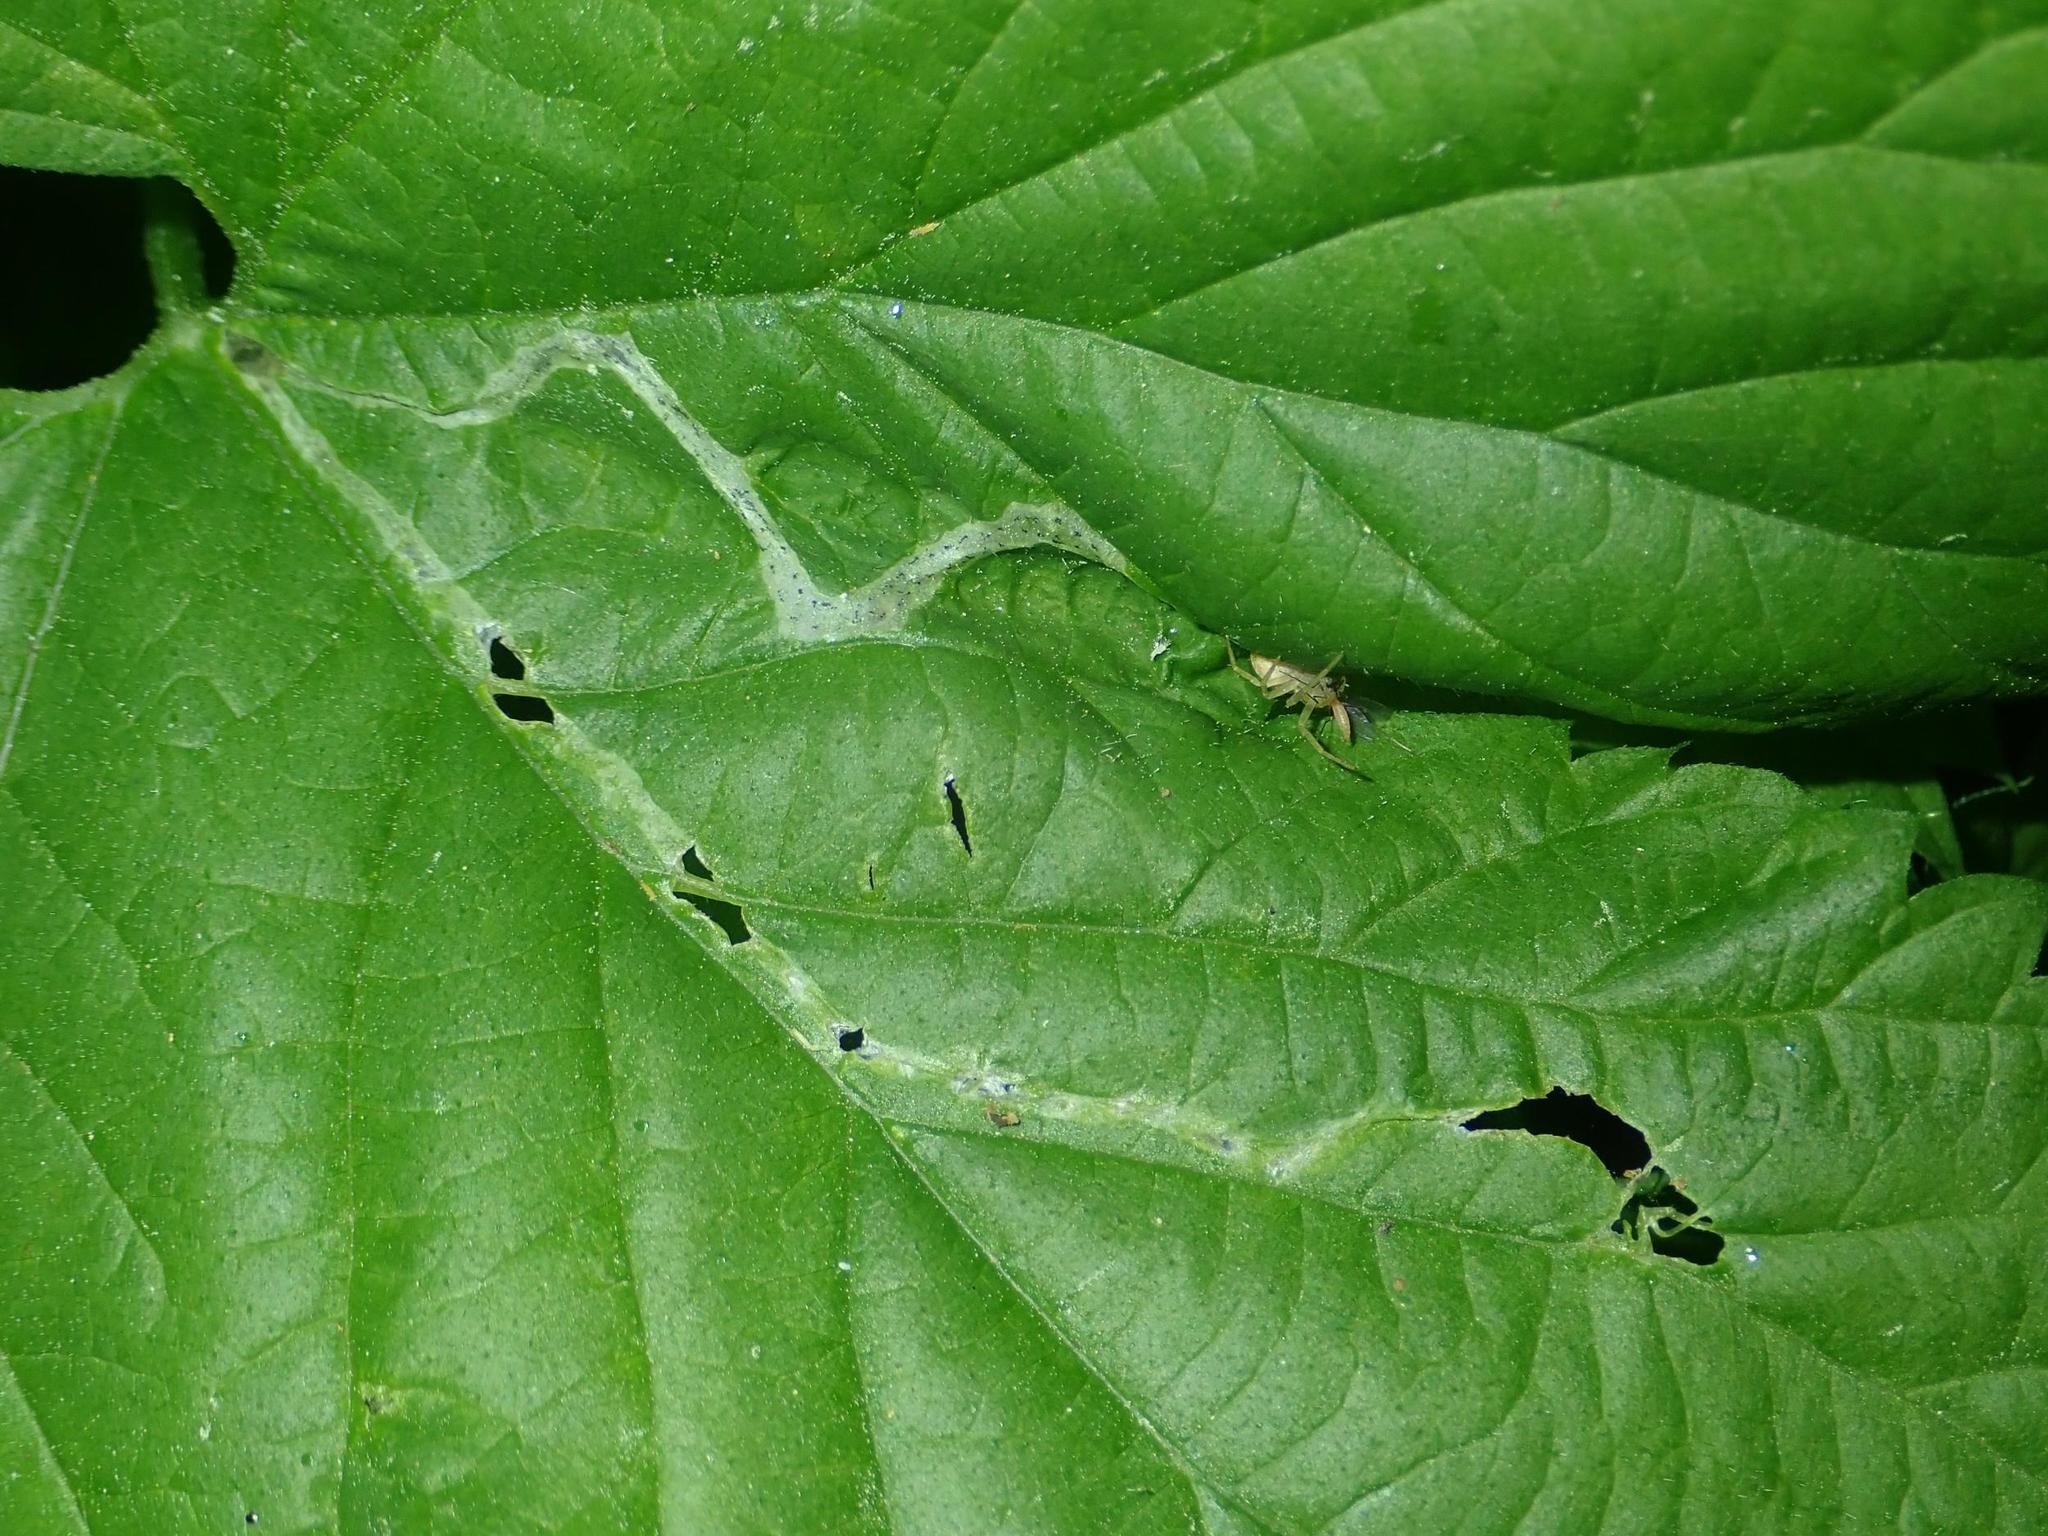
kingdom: Animalia
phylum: Arthropoda
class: Insecta
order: Diptera
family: Agromyzidae
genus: Agromyza
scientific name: Agromyza igniceps
